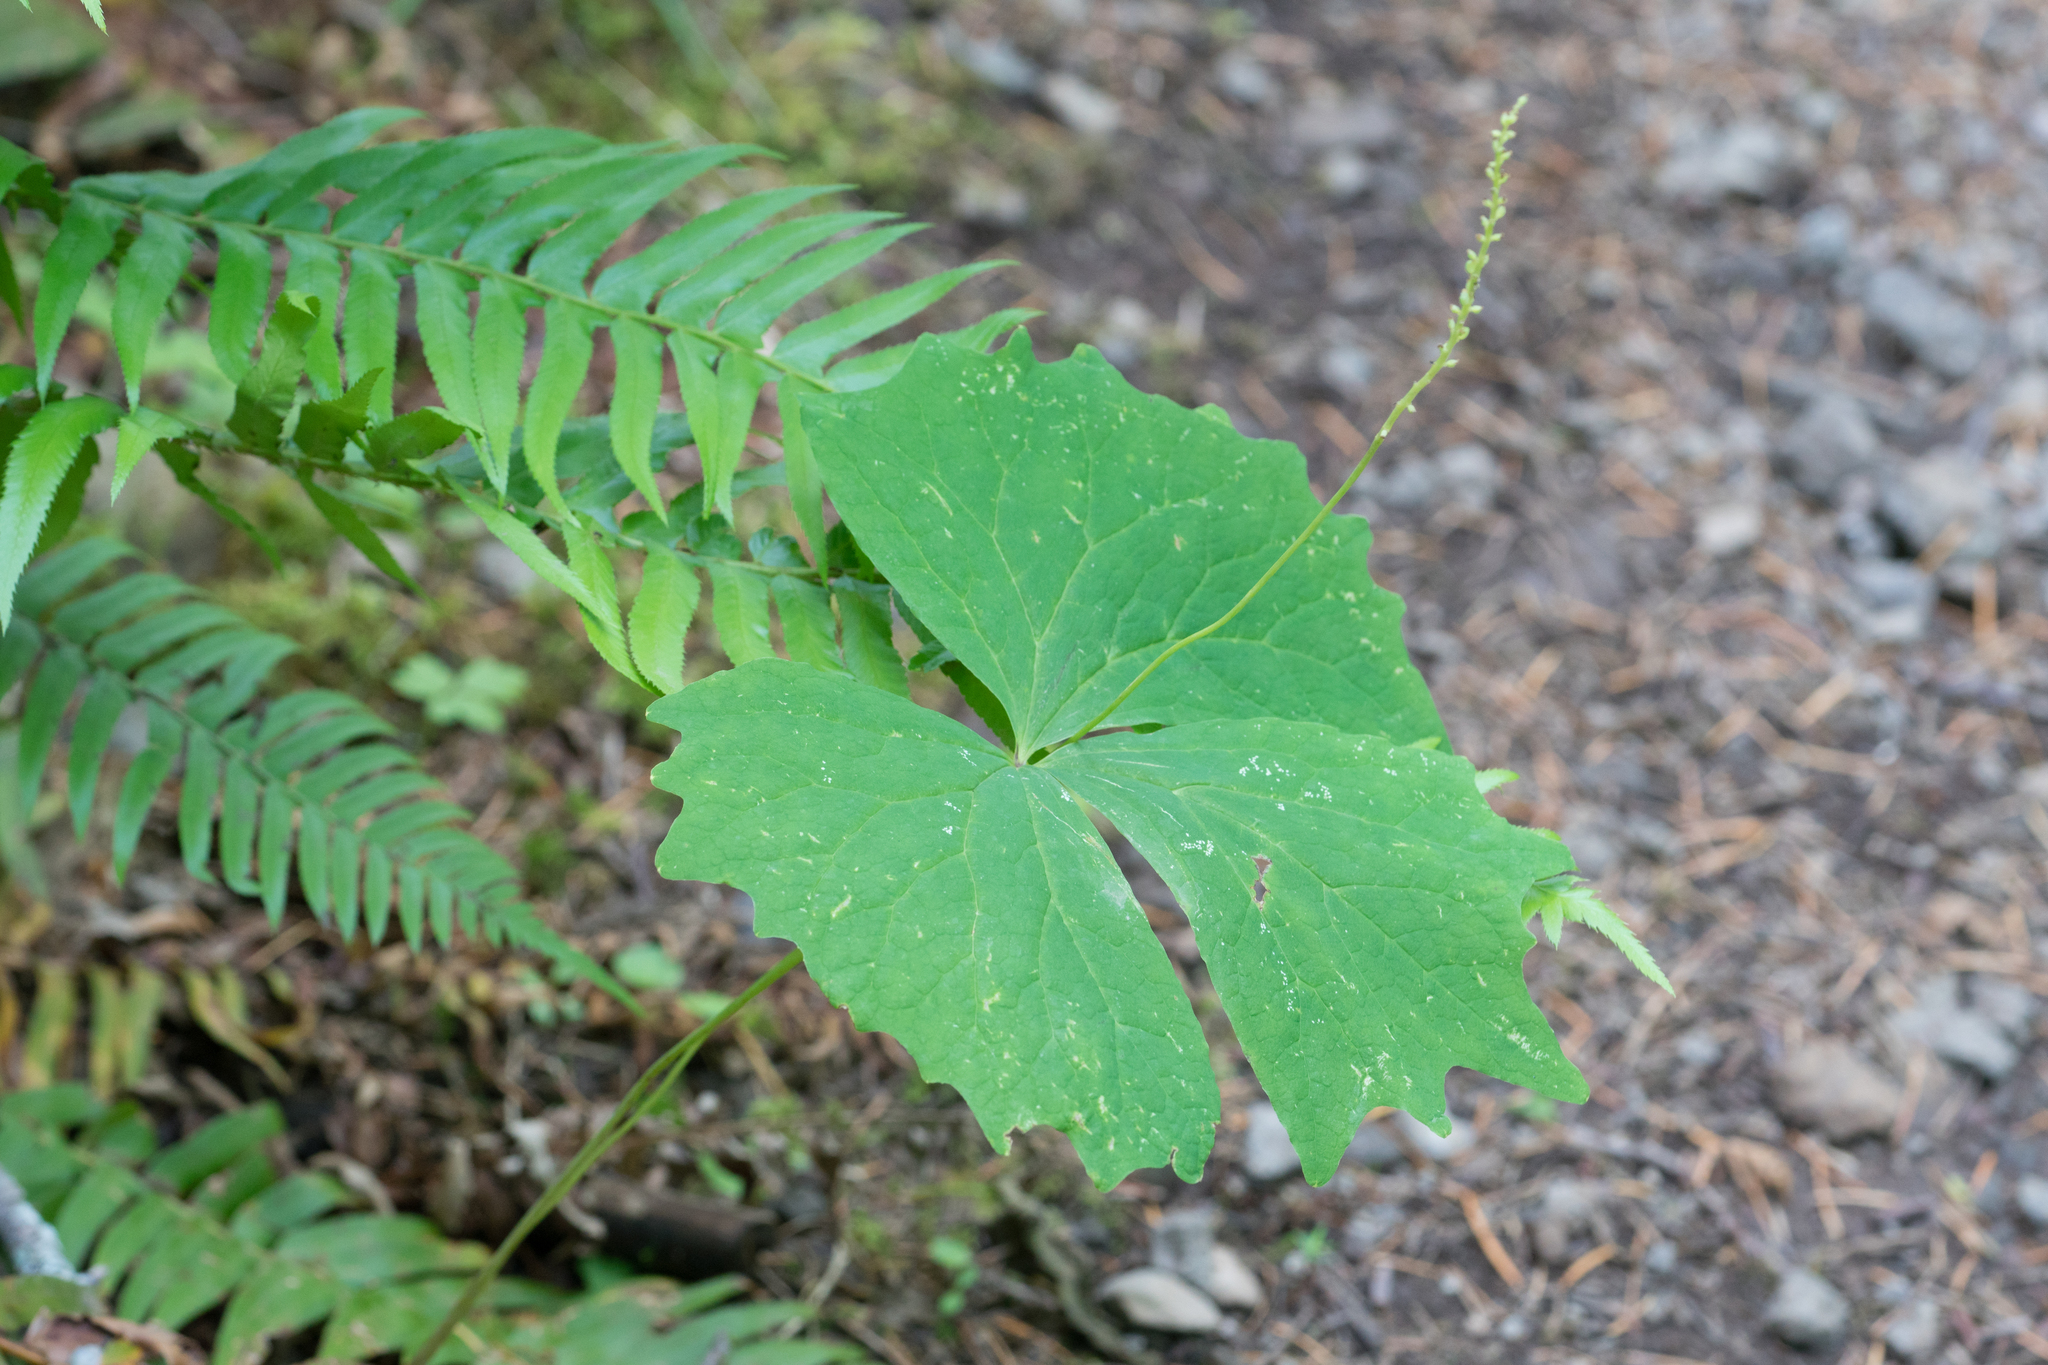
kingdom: Plantae
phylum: Tracheophyta
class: Magnoliopsida
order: Ranunculales
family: Berberidaceae
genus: Achlys
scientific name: Achlys californica
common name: California deer-foot
